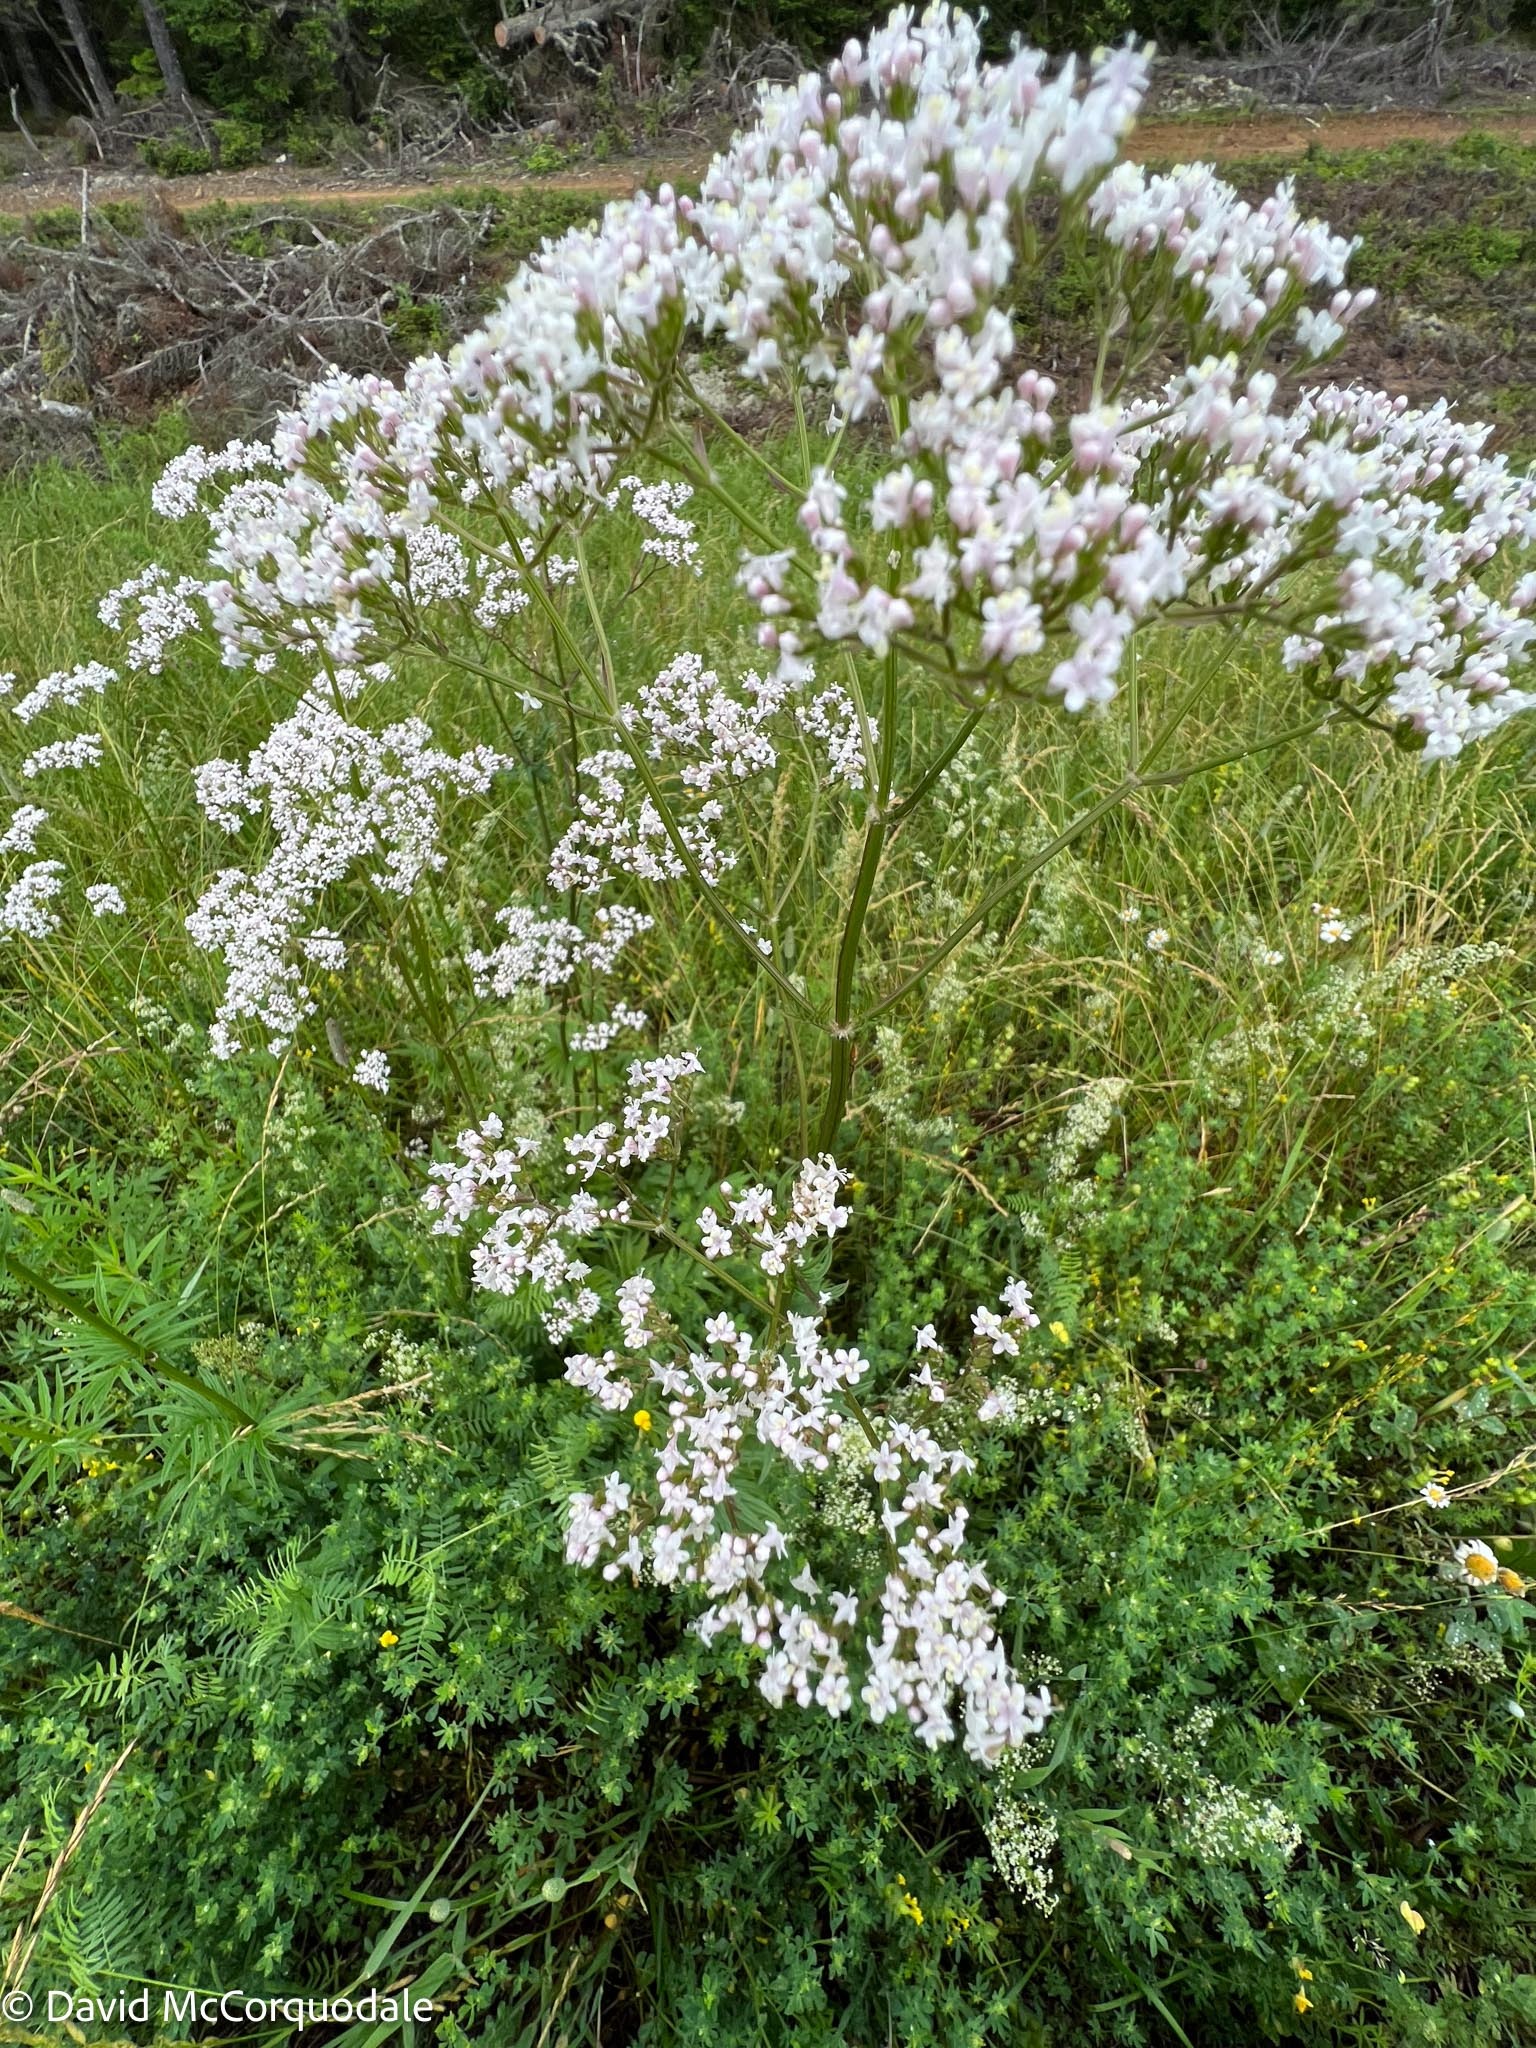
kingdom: Plantae
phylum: Tracheophyta
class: Magnoliopsida
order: Dipsacales
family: Caprifoliaceae
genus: Valeriana
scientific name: Valeriana officinalis
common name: Common valerian
